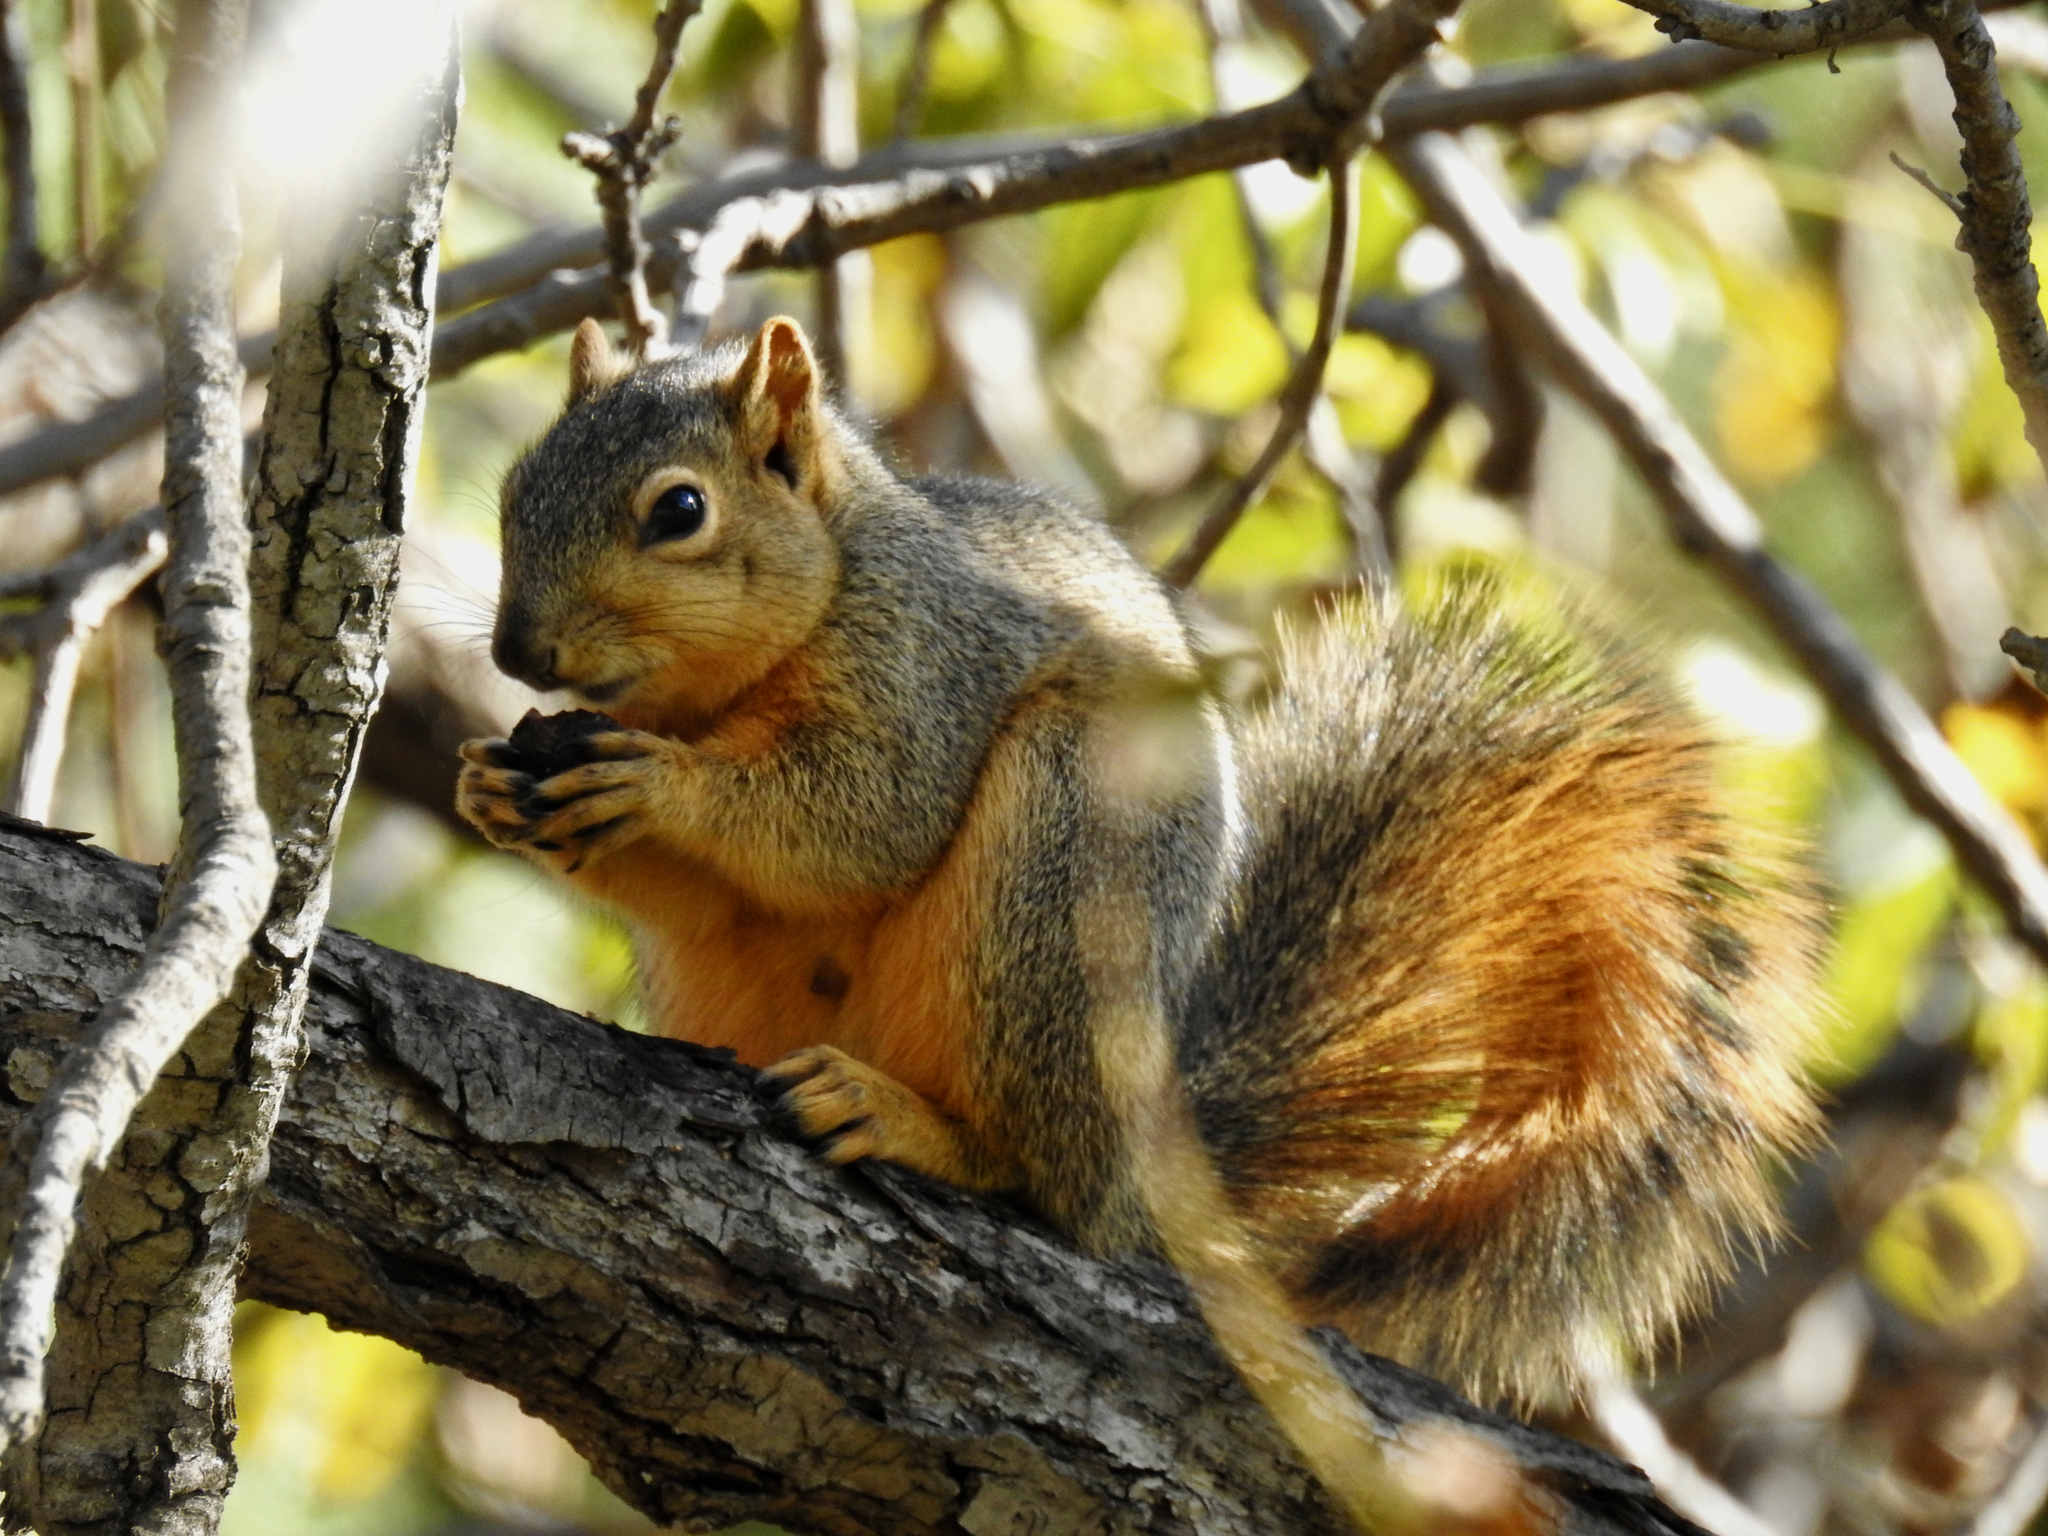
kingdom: Animalia
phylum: Chordata
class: Mammalia
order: Rodentia
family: Sciuridae
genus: Sciurus
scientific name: Sciurus niger
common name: Fox squirrel
